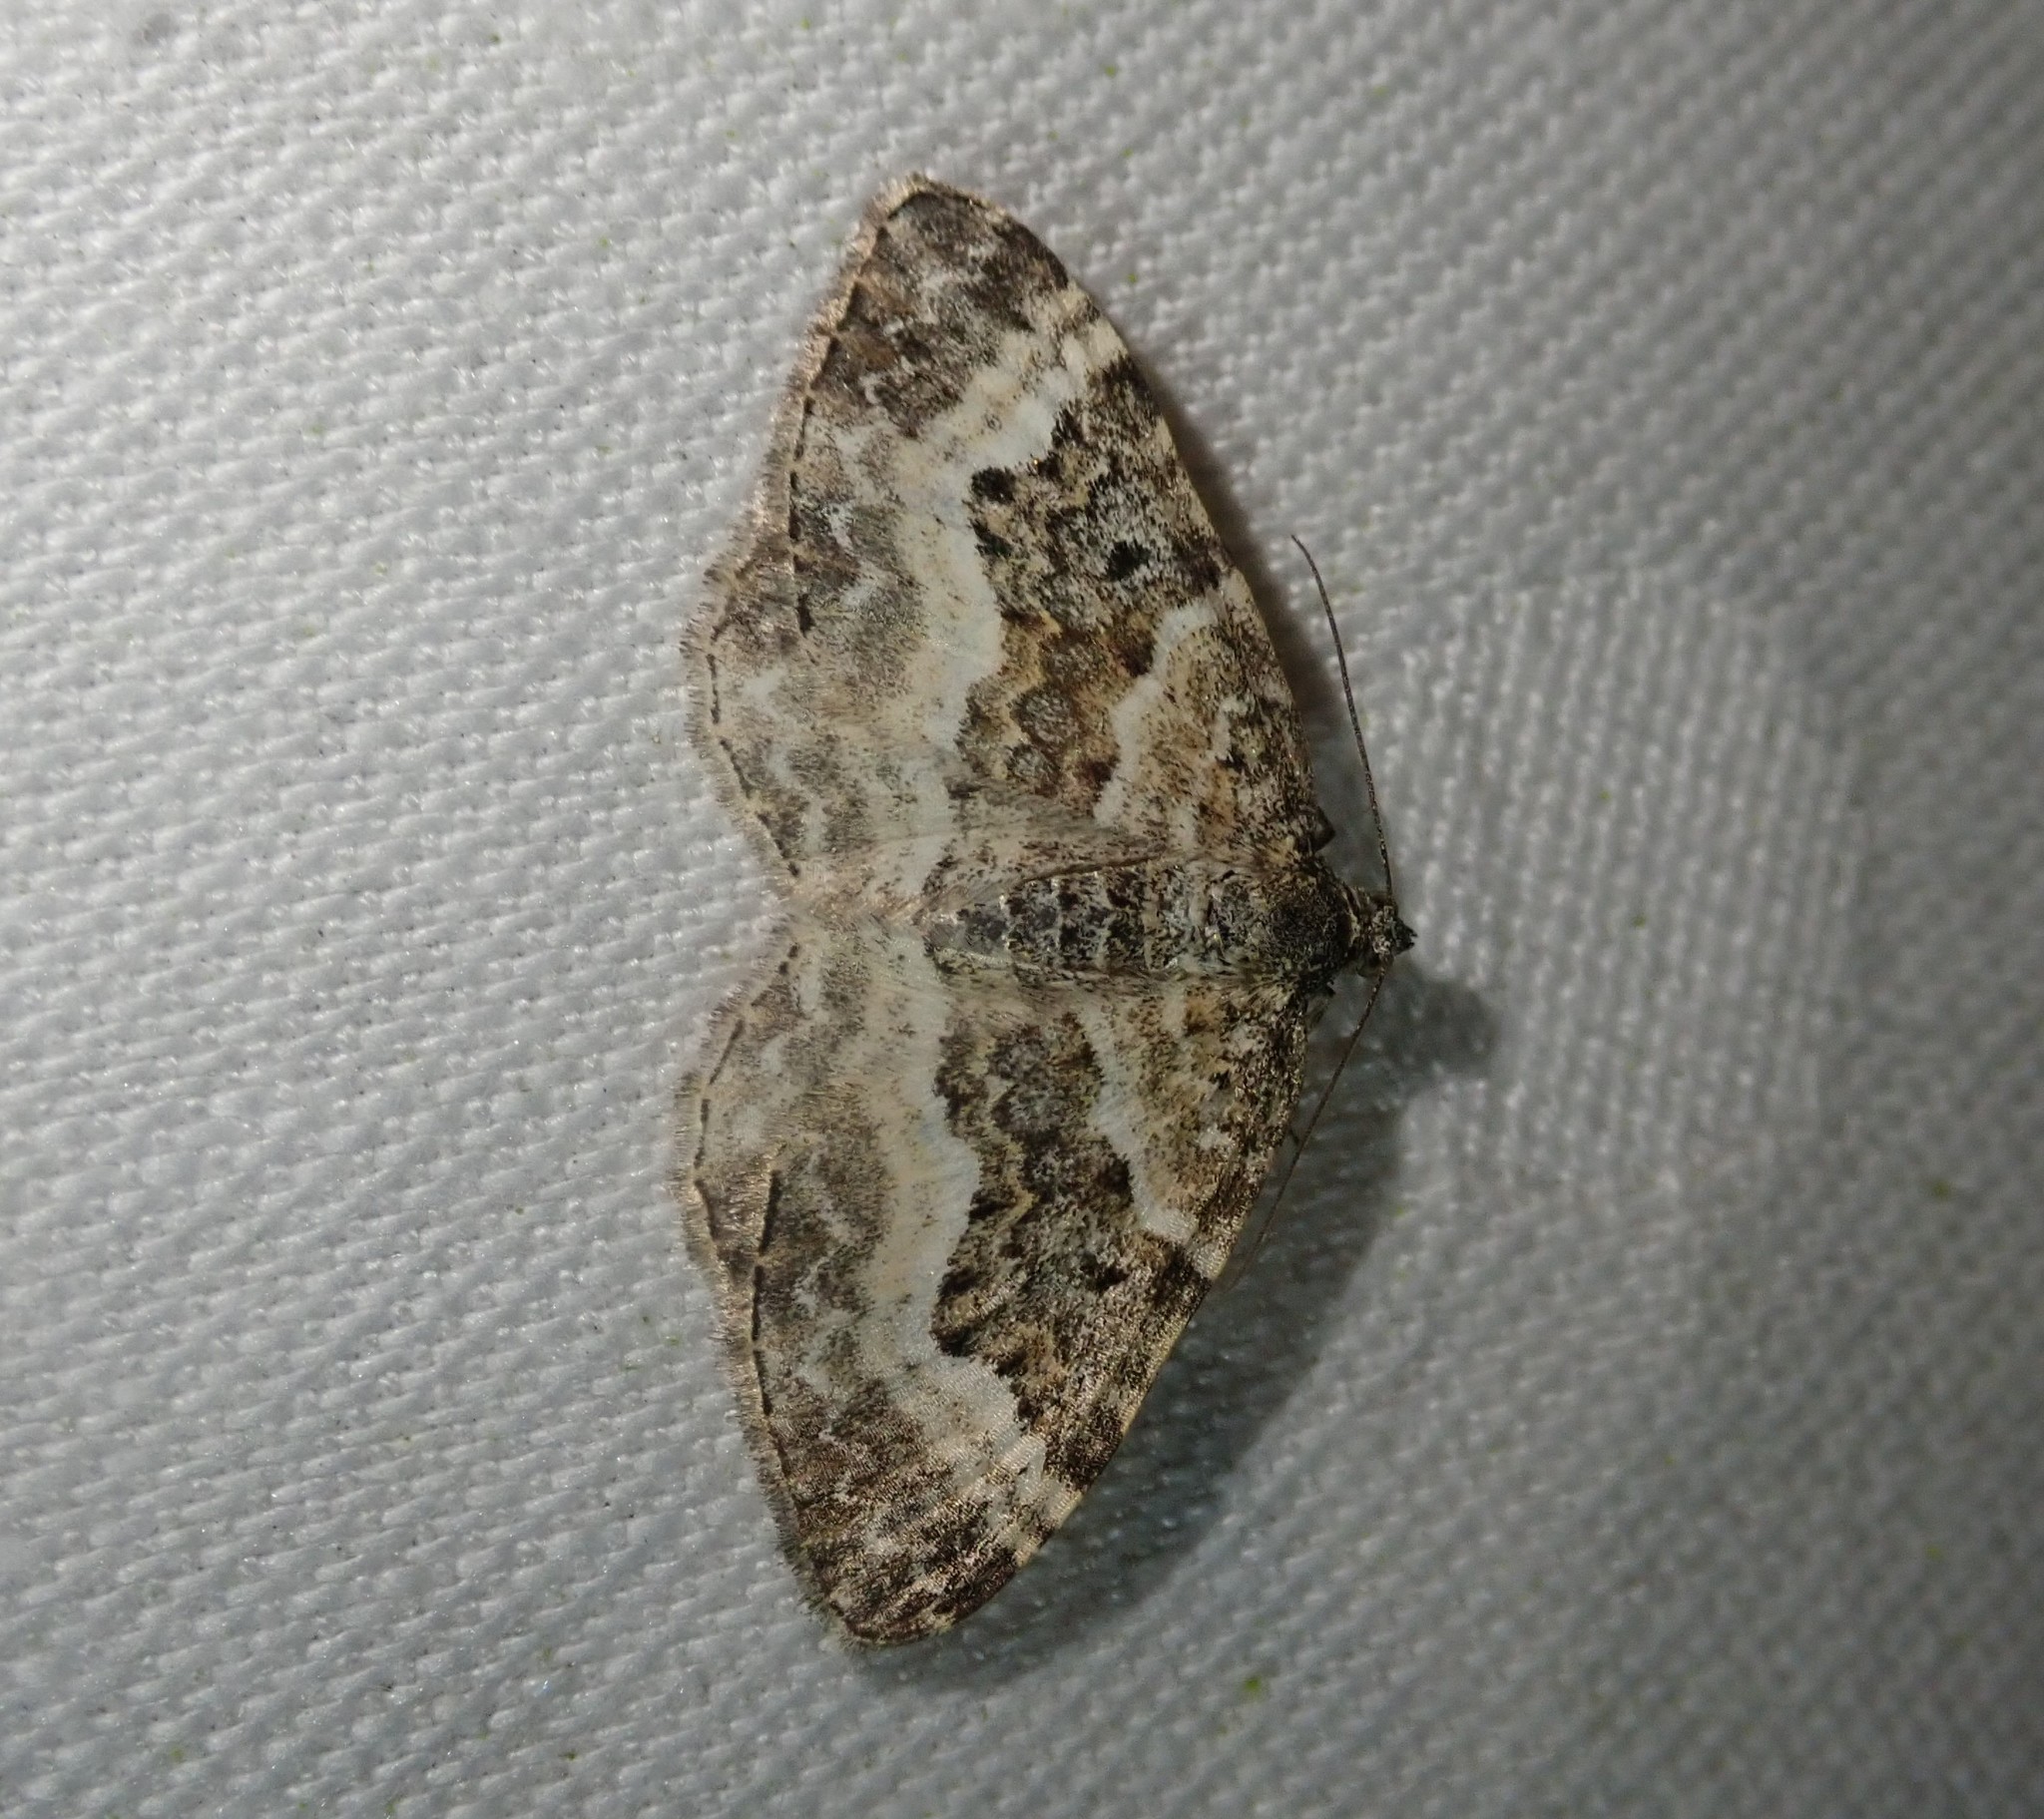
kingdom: Animalia
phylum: Arthropoda
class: Insecta
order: Lepidoptera
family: Geometridae
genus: Epirrhoe
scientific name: Epirrhoe alternata
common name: Common carpet
